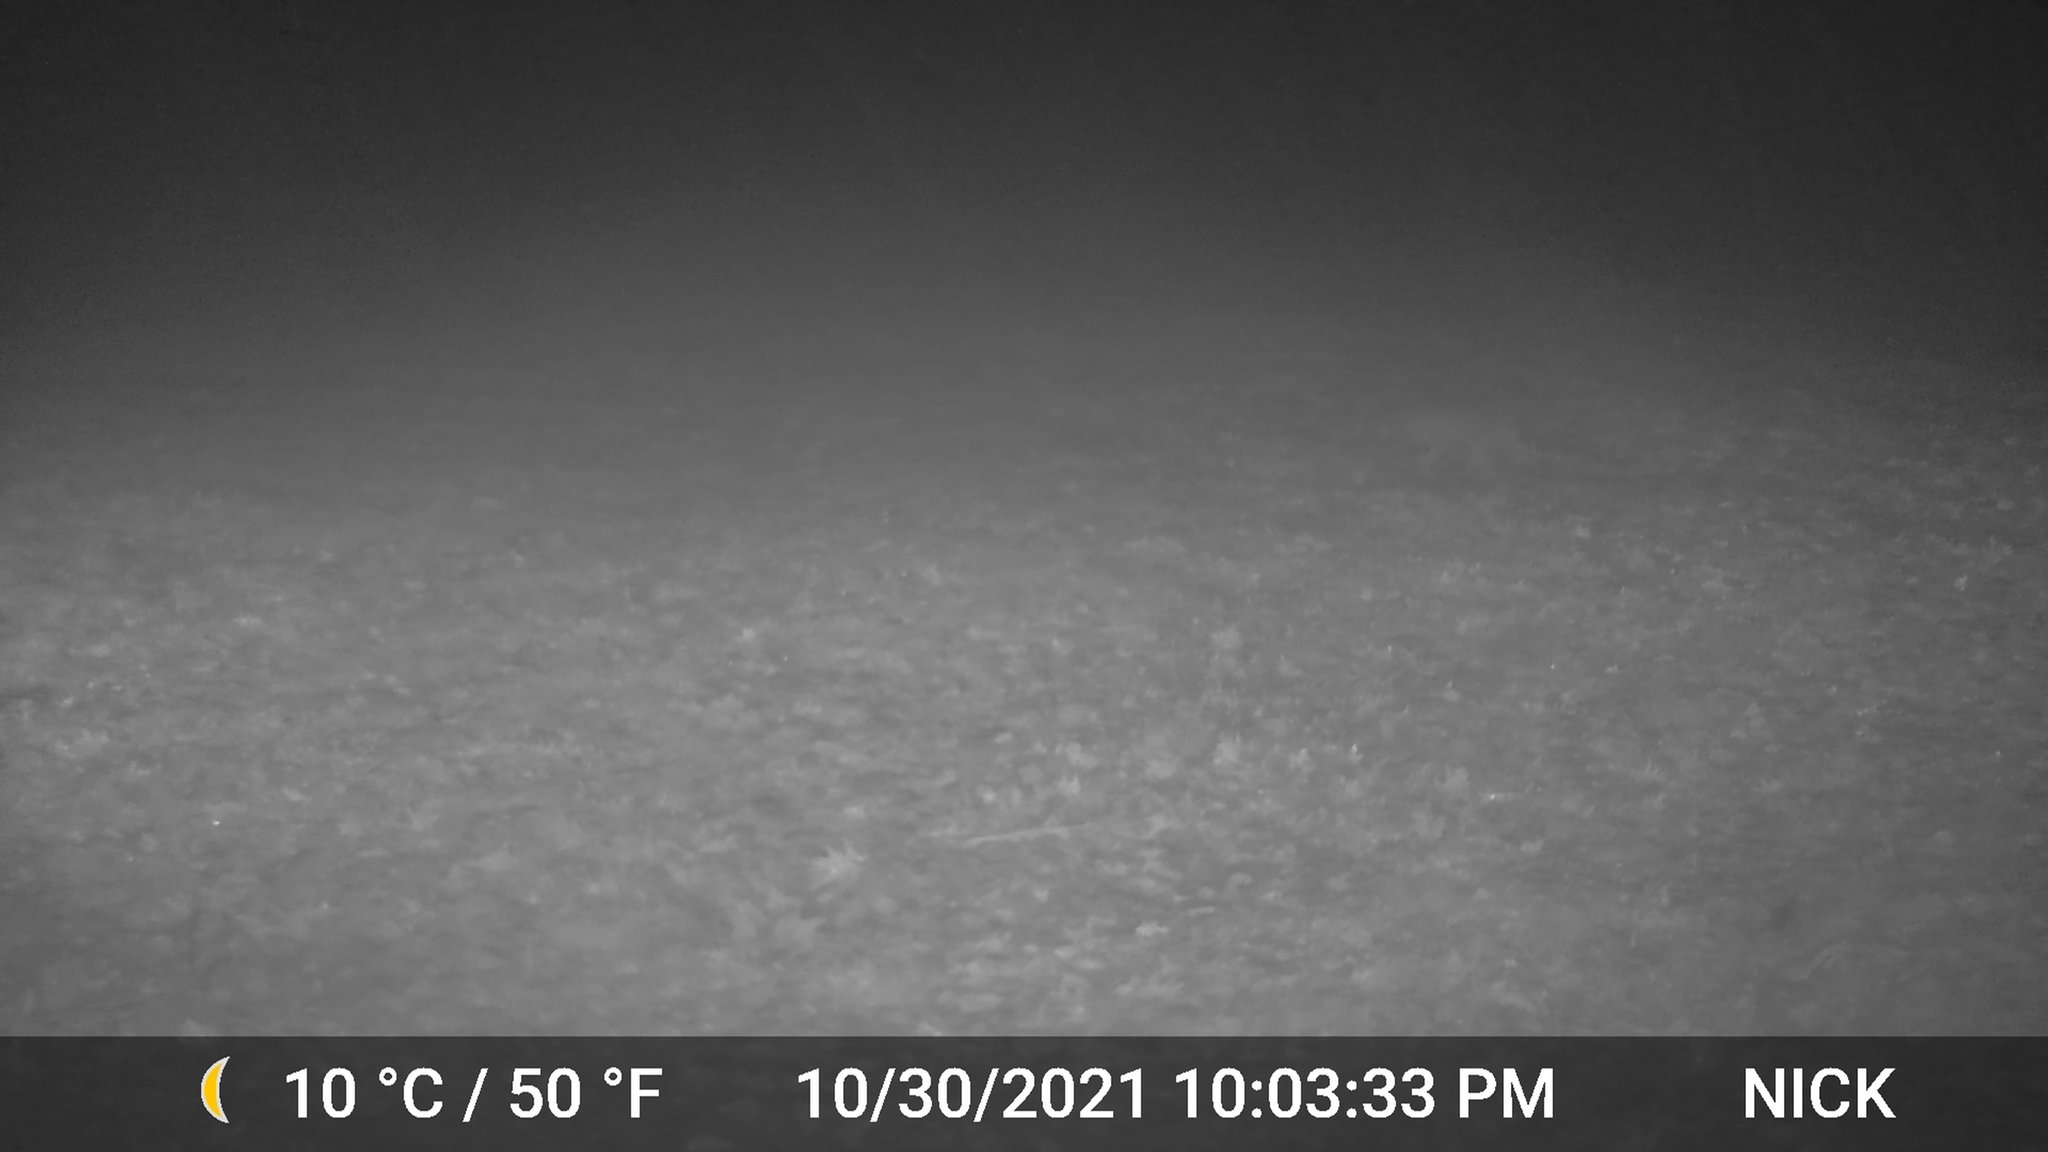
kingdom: Animalia
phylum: Chordata
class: Mammalia
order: Carnivora
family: Canidae
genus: Canis
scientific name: Canis latrans
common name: Coyote
